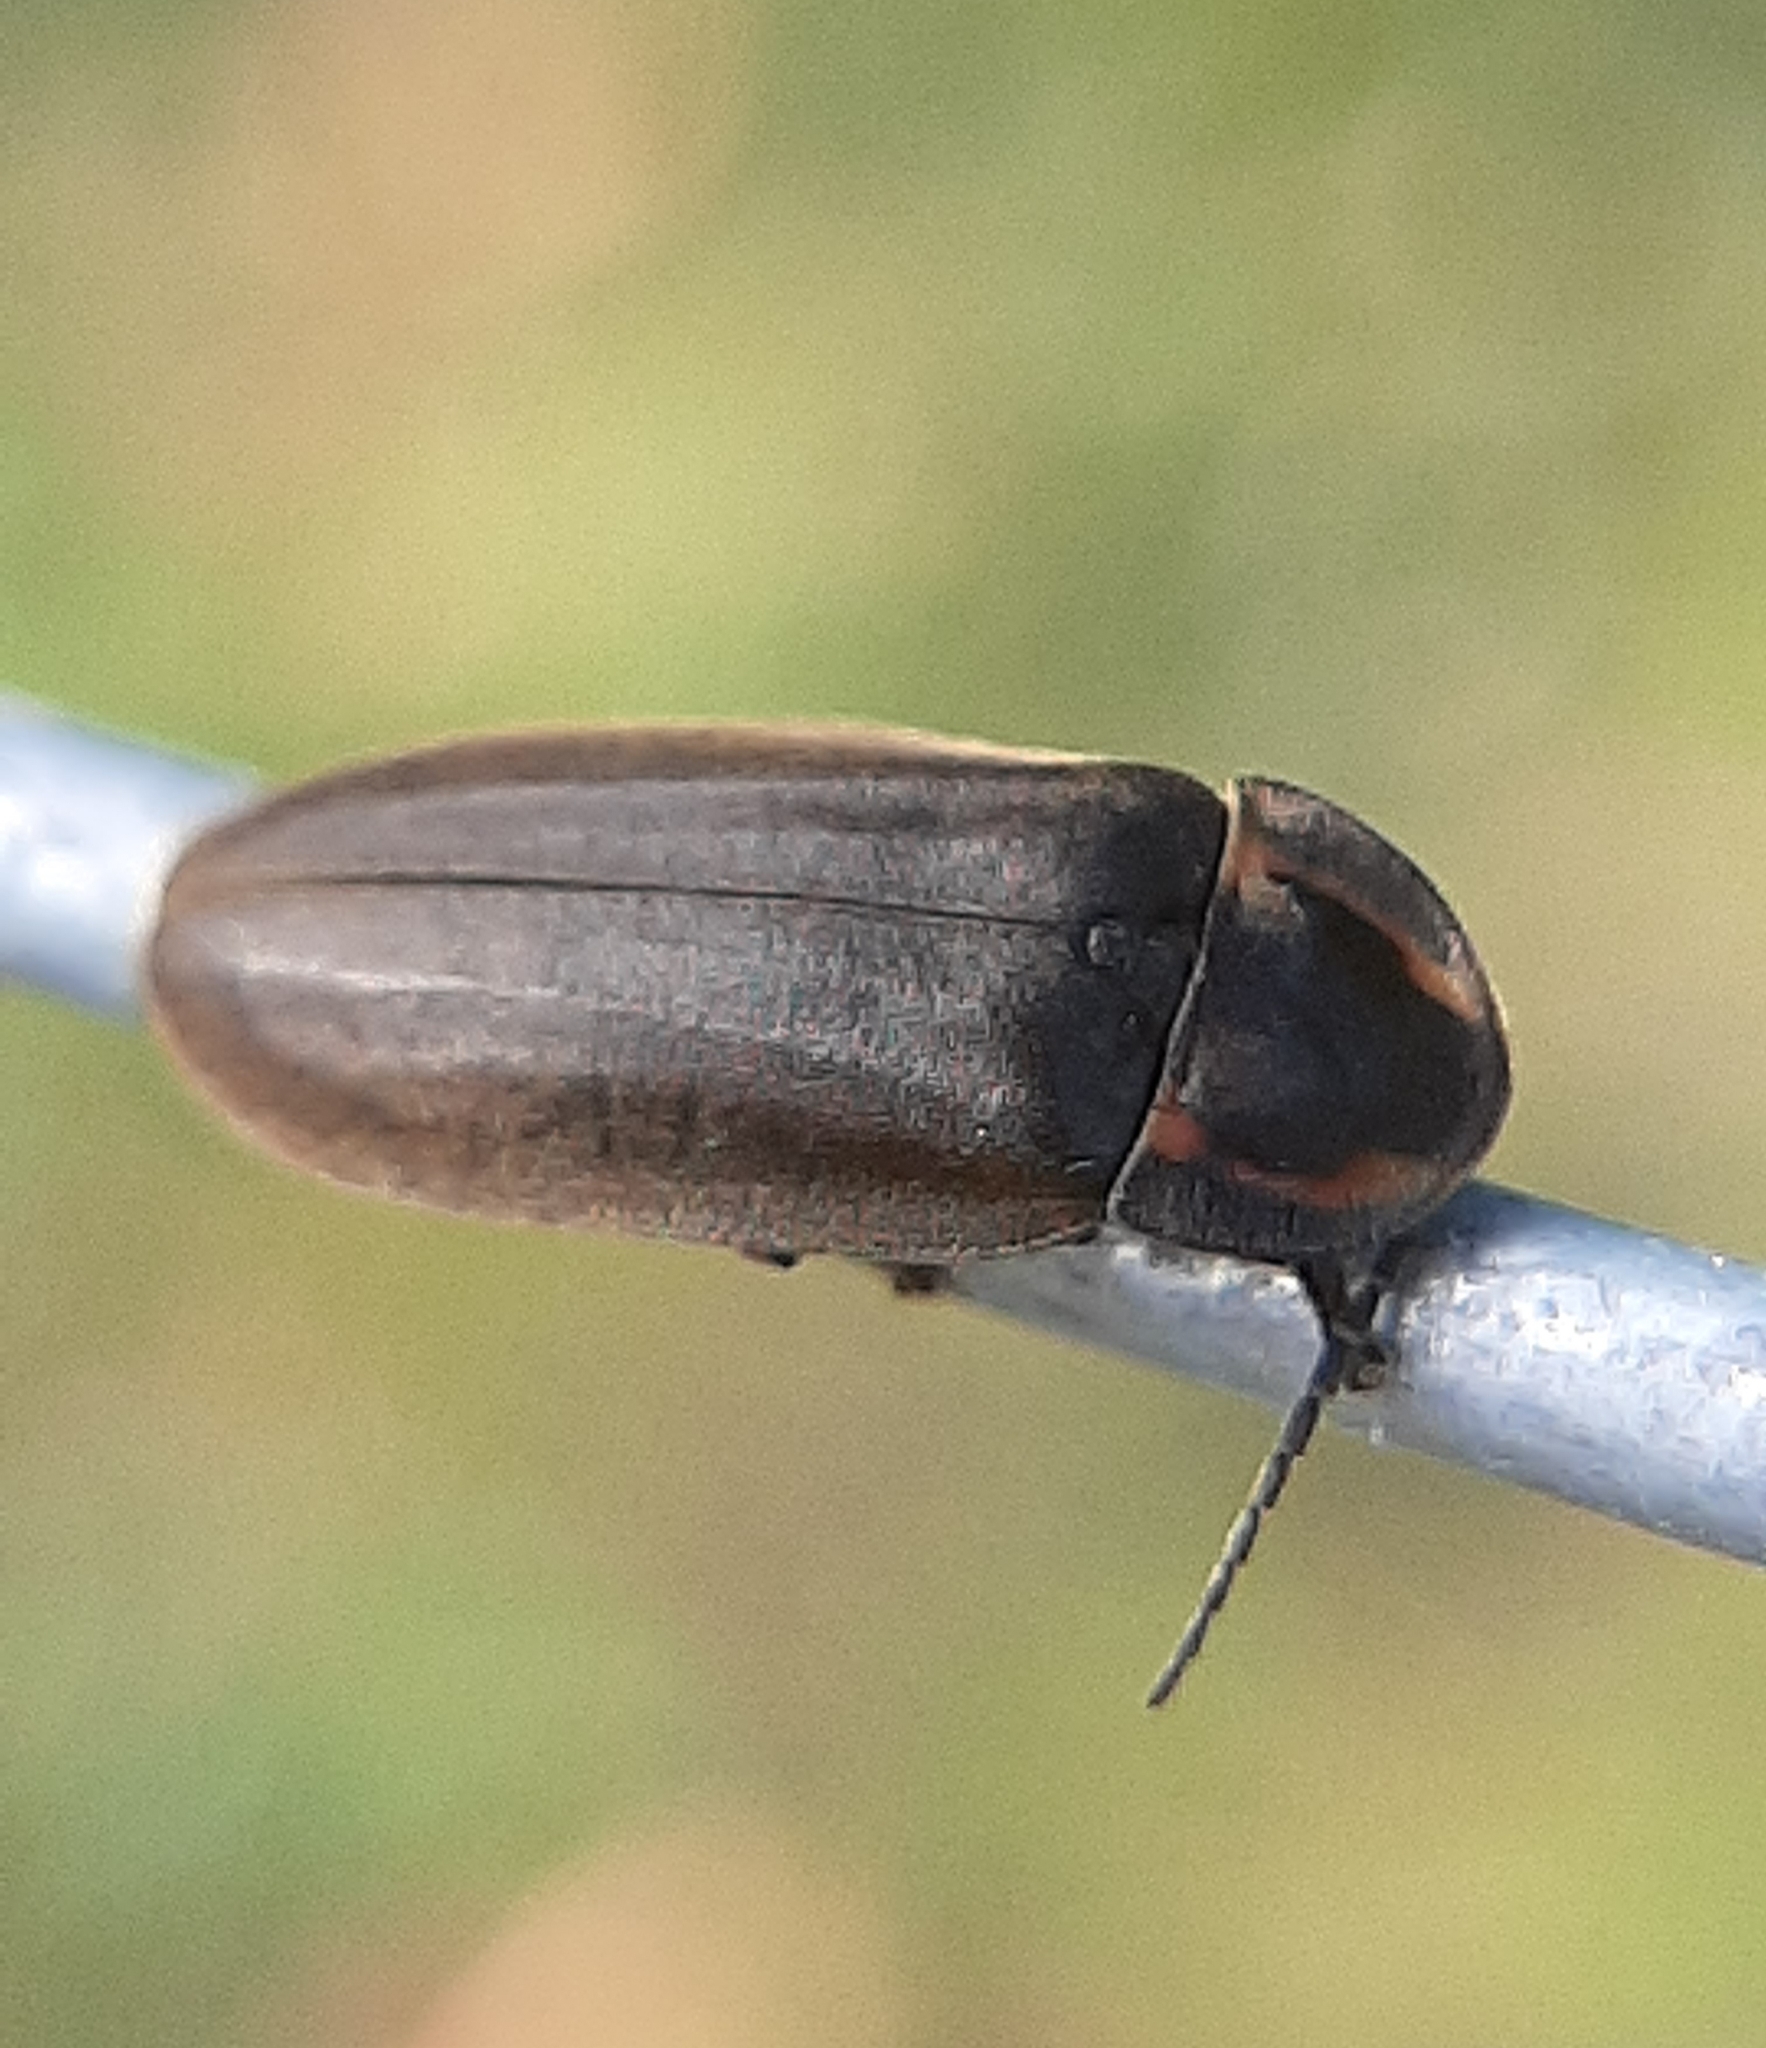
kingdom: Animalia
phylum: Arthropoda
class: Insecta
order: Coleoptera
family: Lampyridae
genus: Photinus
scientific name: Photinus corrusca
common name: Winter firefly
